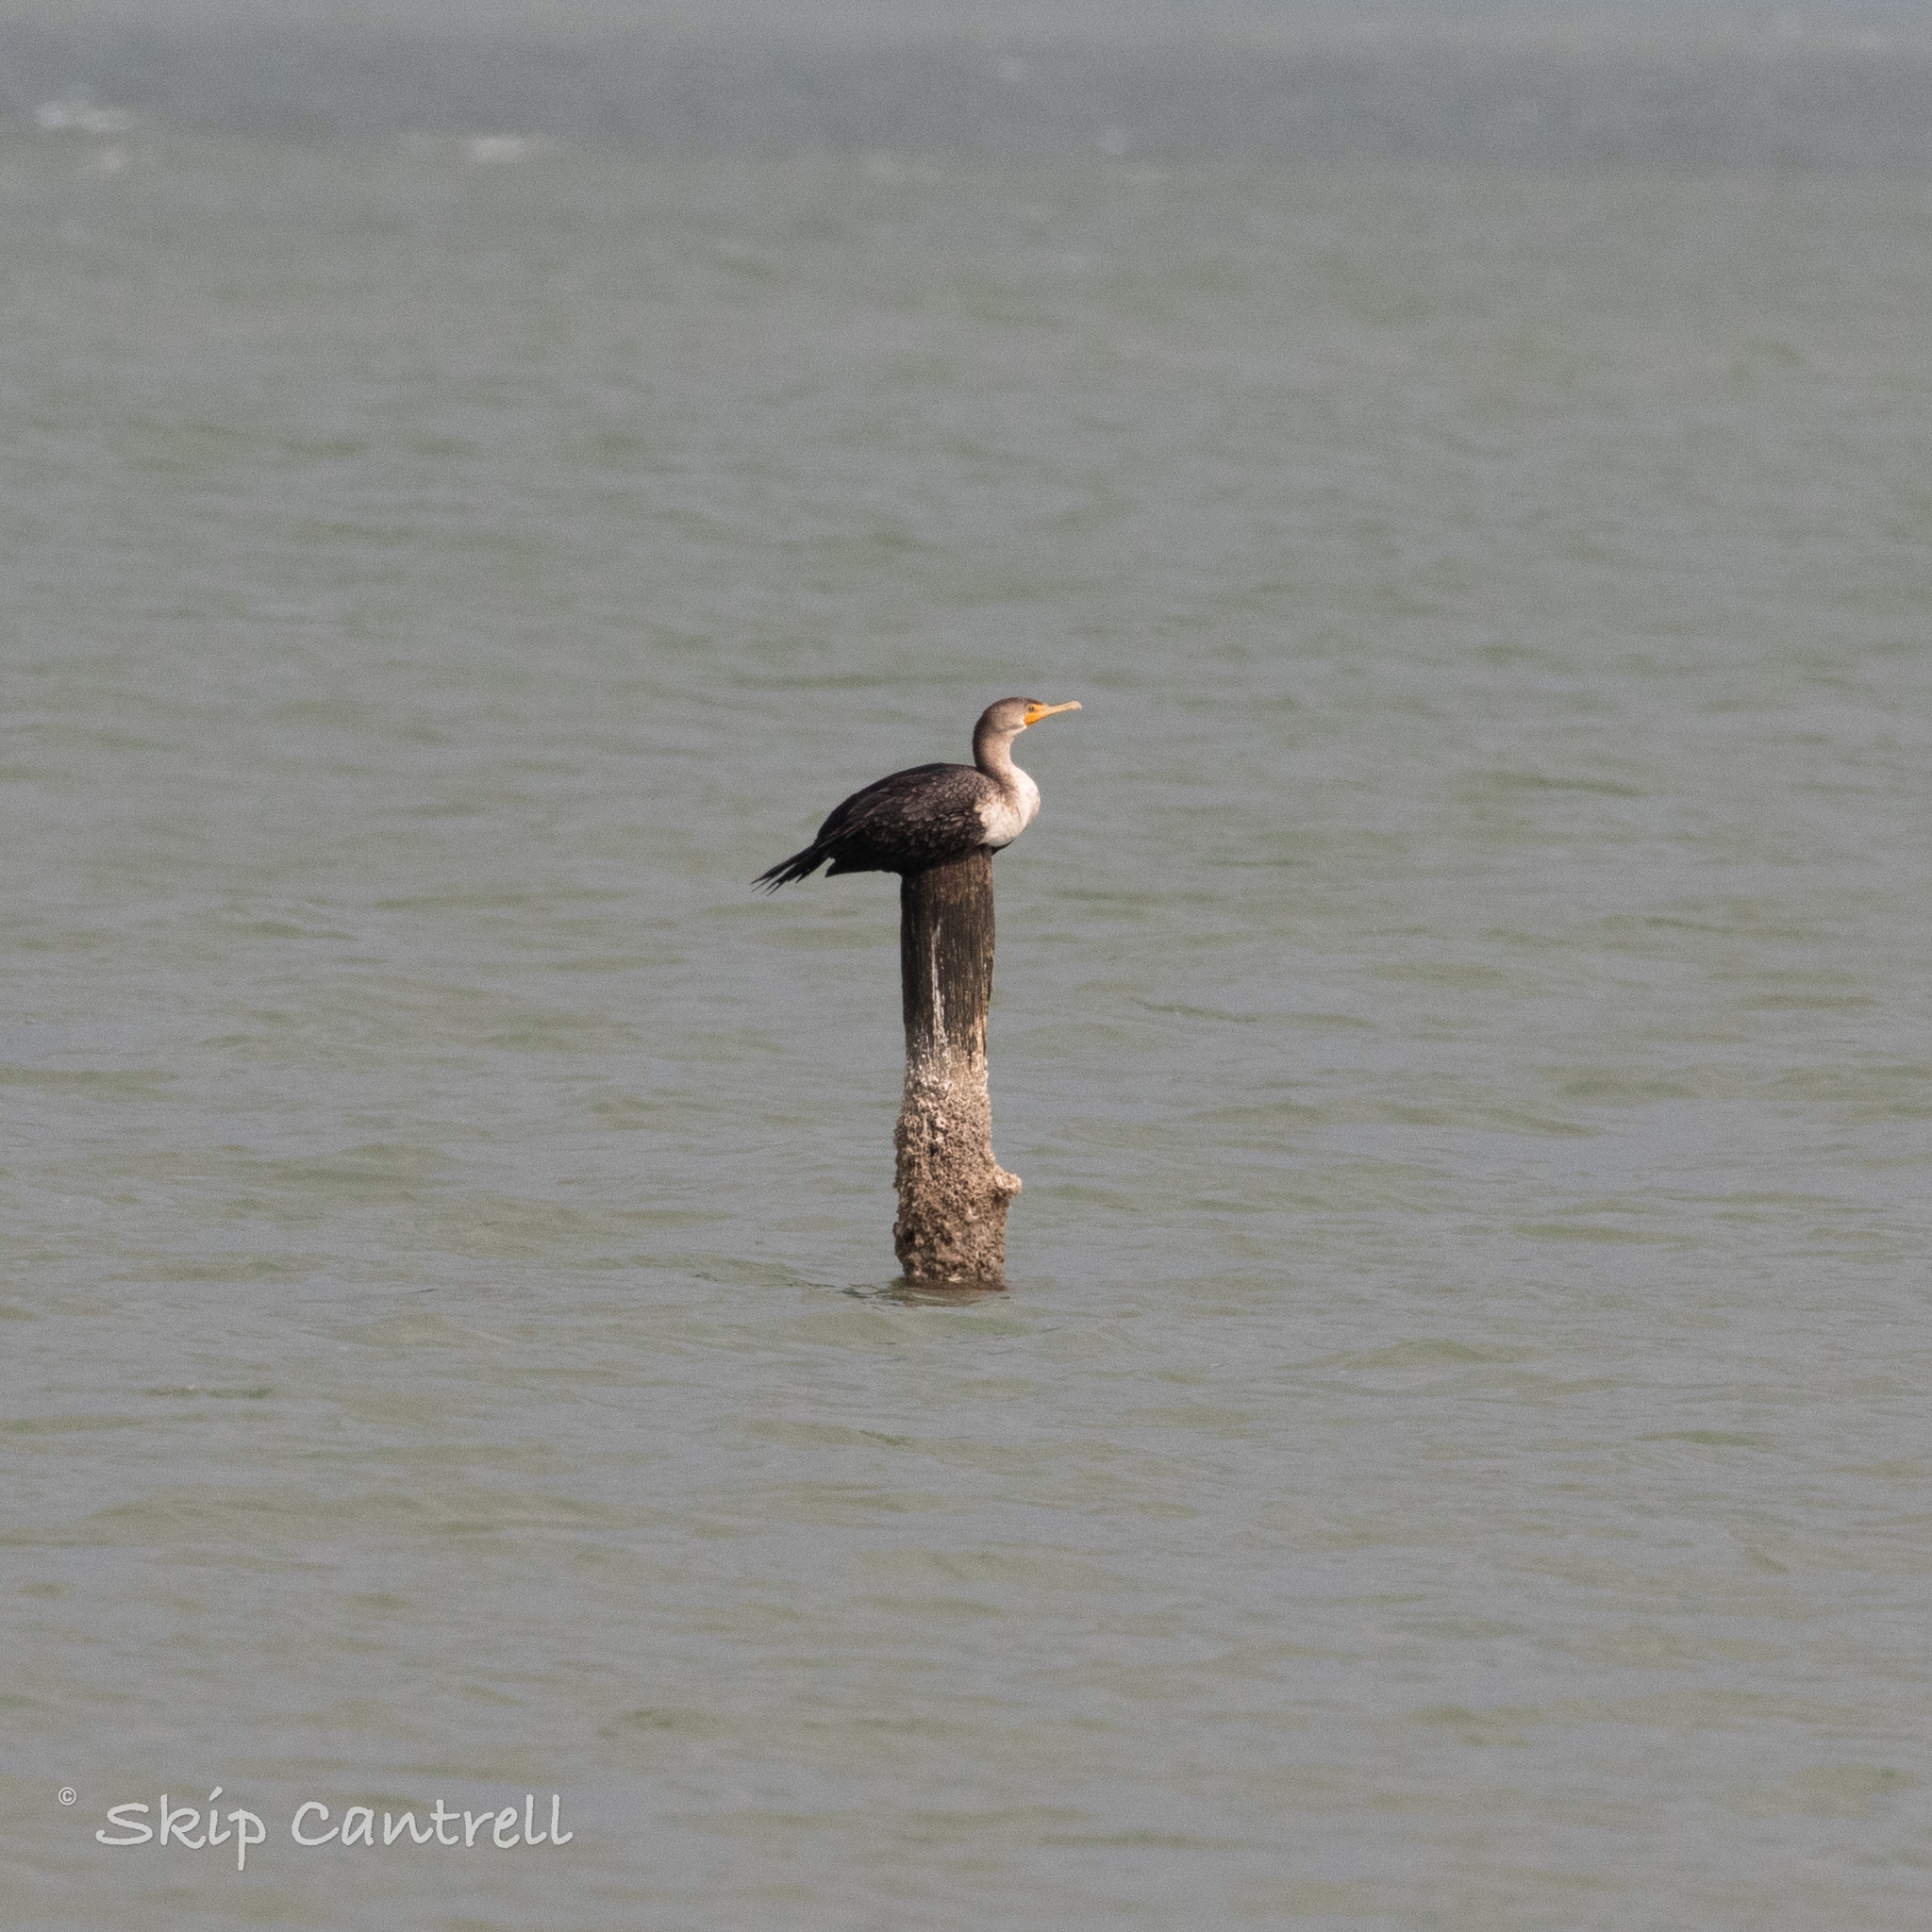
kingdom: Animalia
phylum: Chordata
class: Aves
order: Suliformes
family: Phalacrocoracidae
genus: Phalacrocorax
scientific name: Phalacrocorax auritus
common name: Double-crested cormorant
